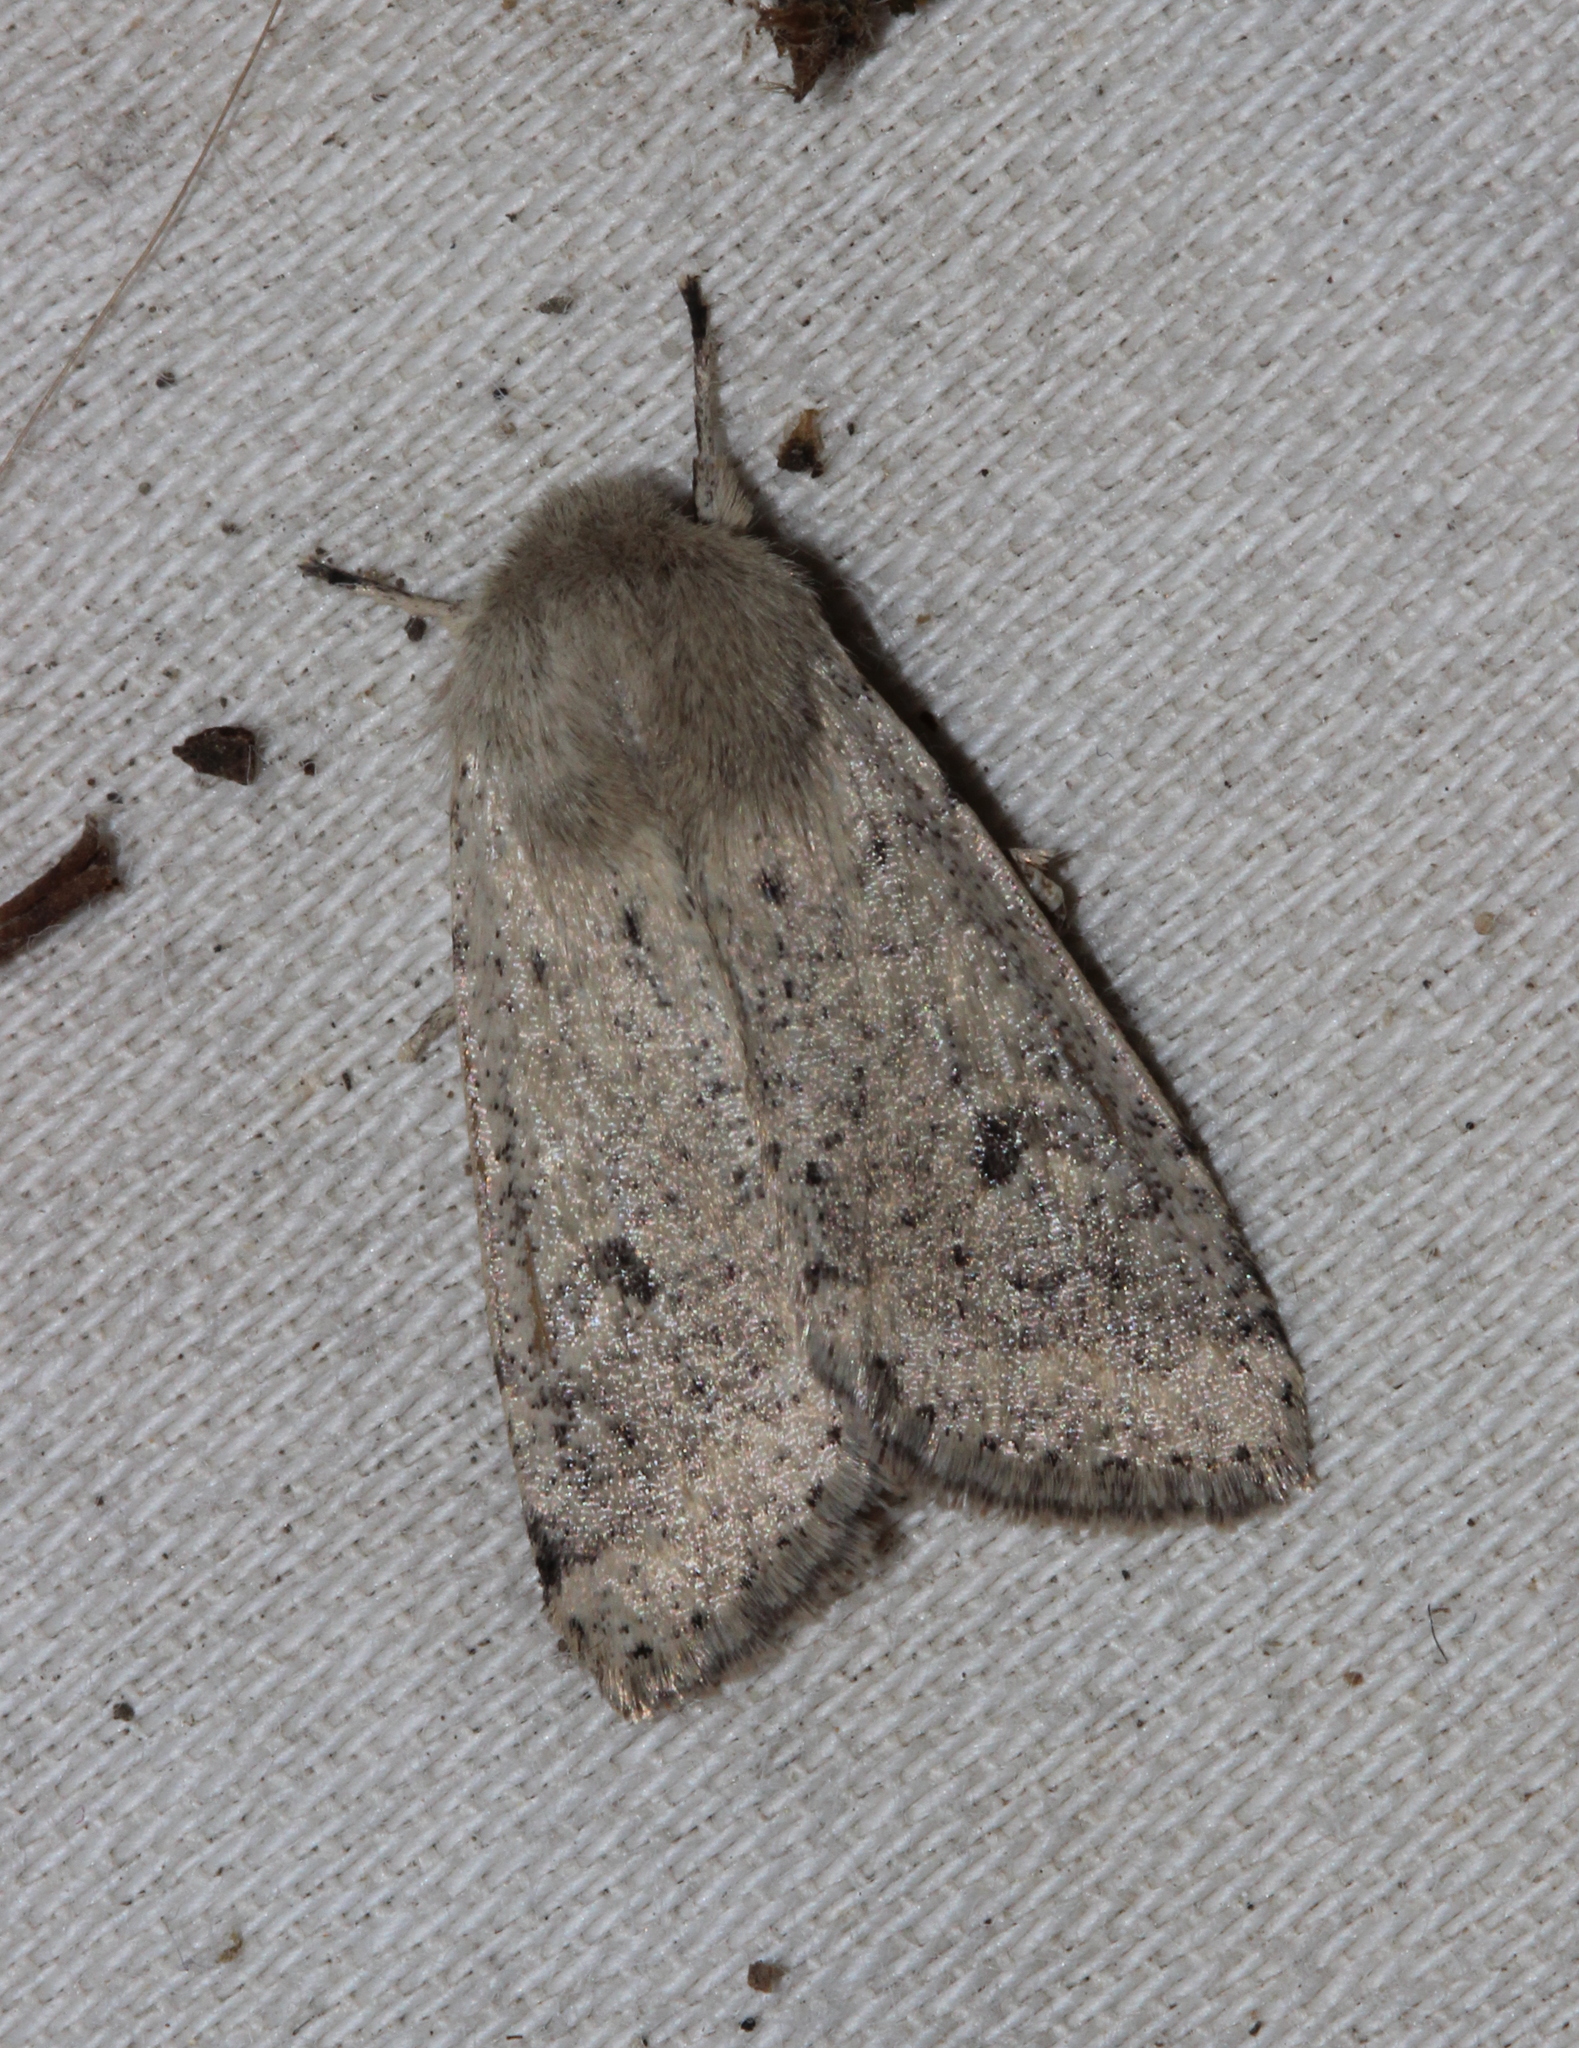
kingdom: Animalia
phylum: Arthropoda
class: Insecta
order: Lepidoptera
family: Noctuidae
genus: Orthosia
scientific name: Orthosia cruda
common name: Small quaker
